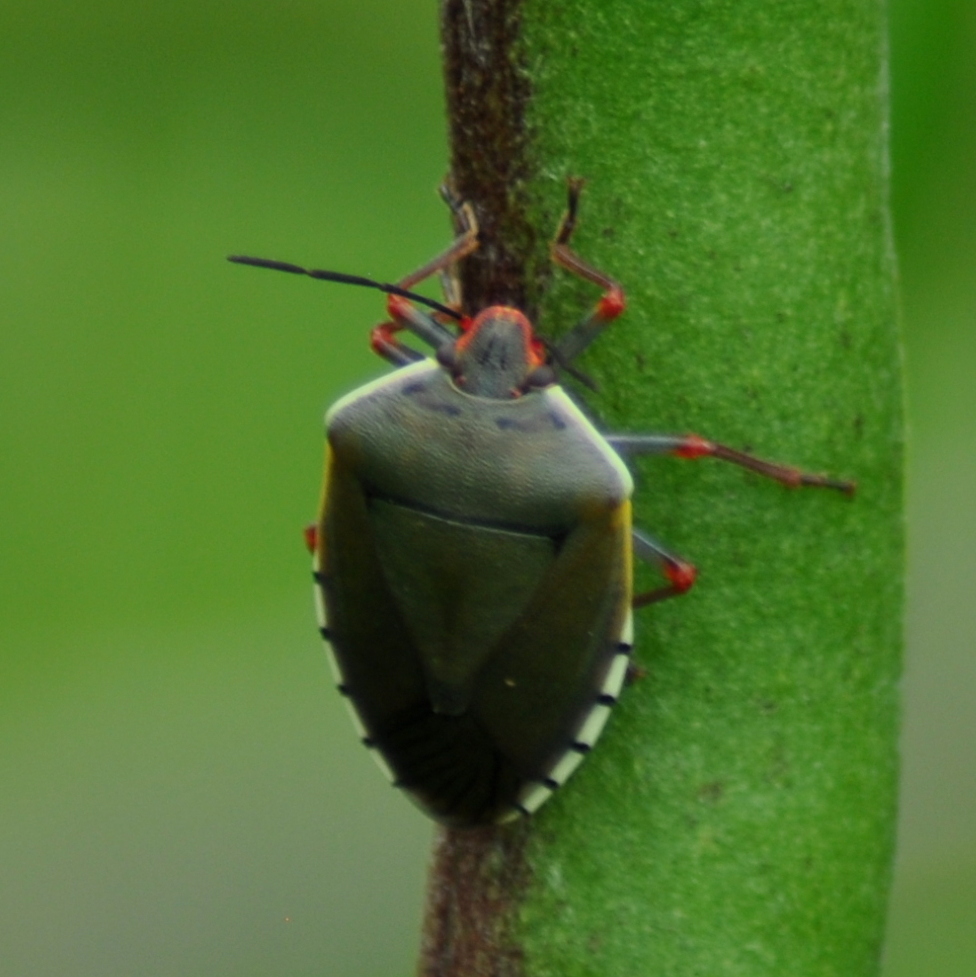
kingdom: Animalia
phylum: Arthropoda
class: Insecta
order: Hemiptera
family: Pentatomidae
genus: Chinavia
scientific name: Chinavia erythrocnemis
